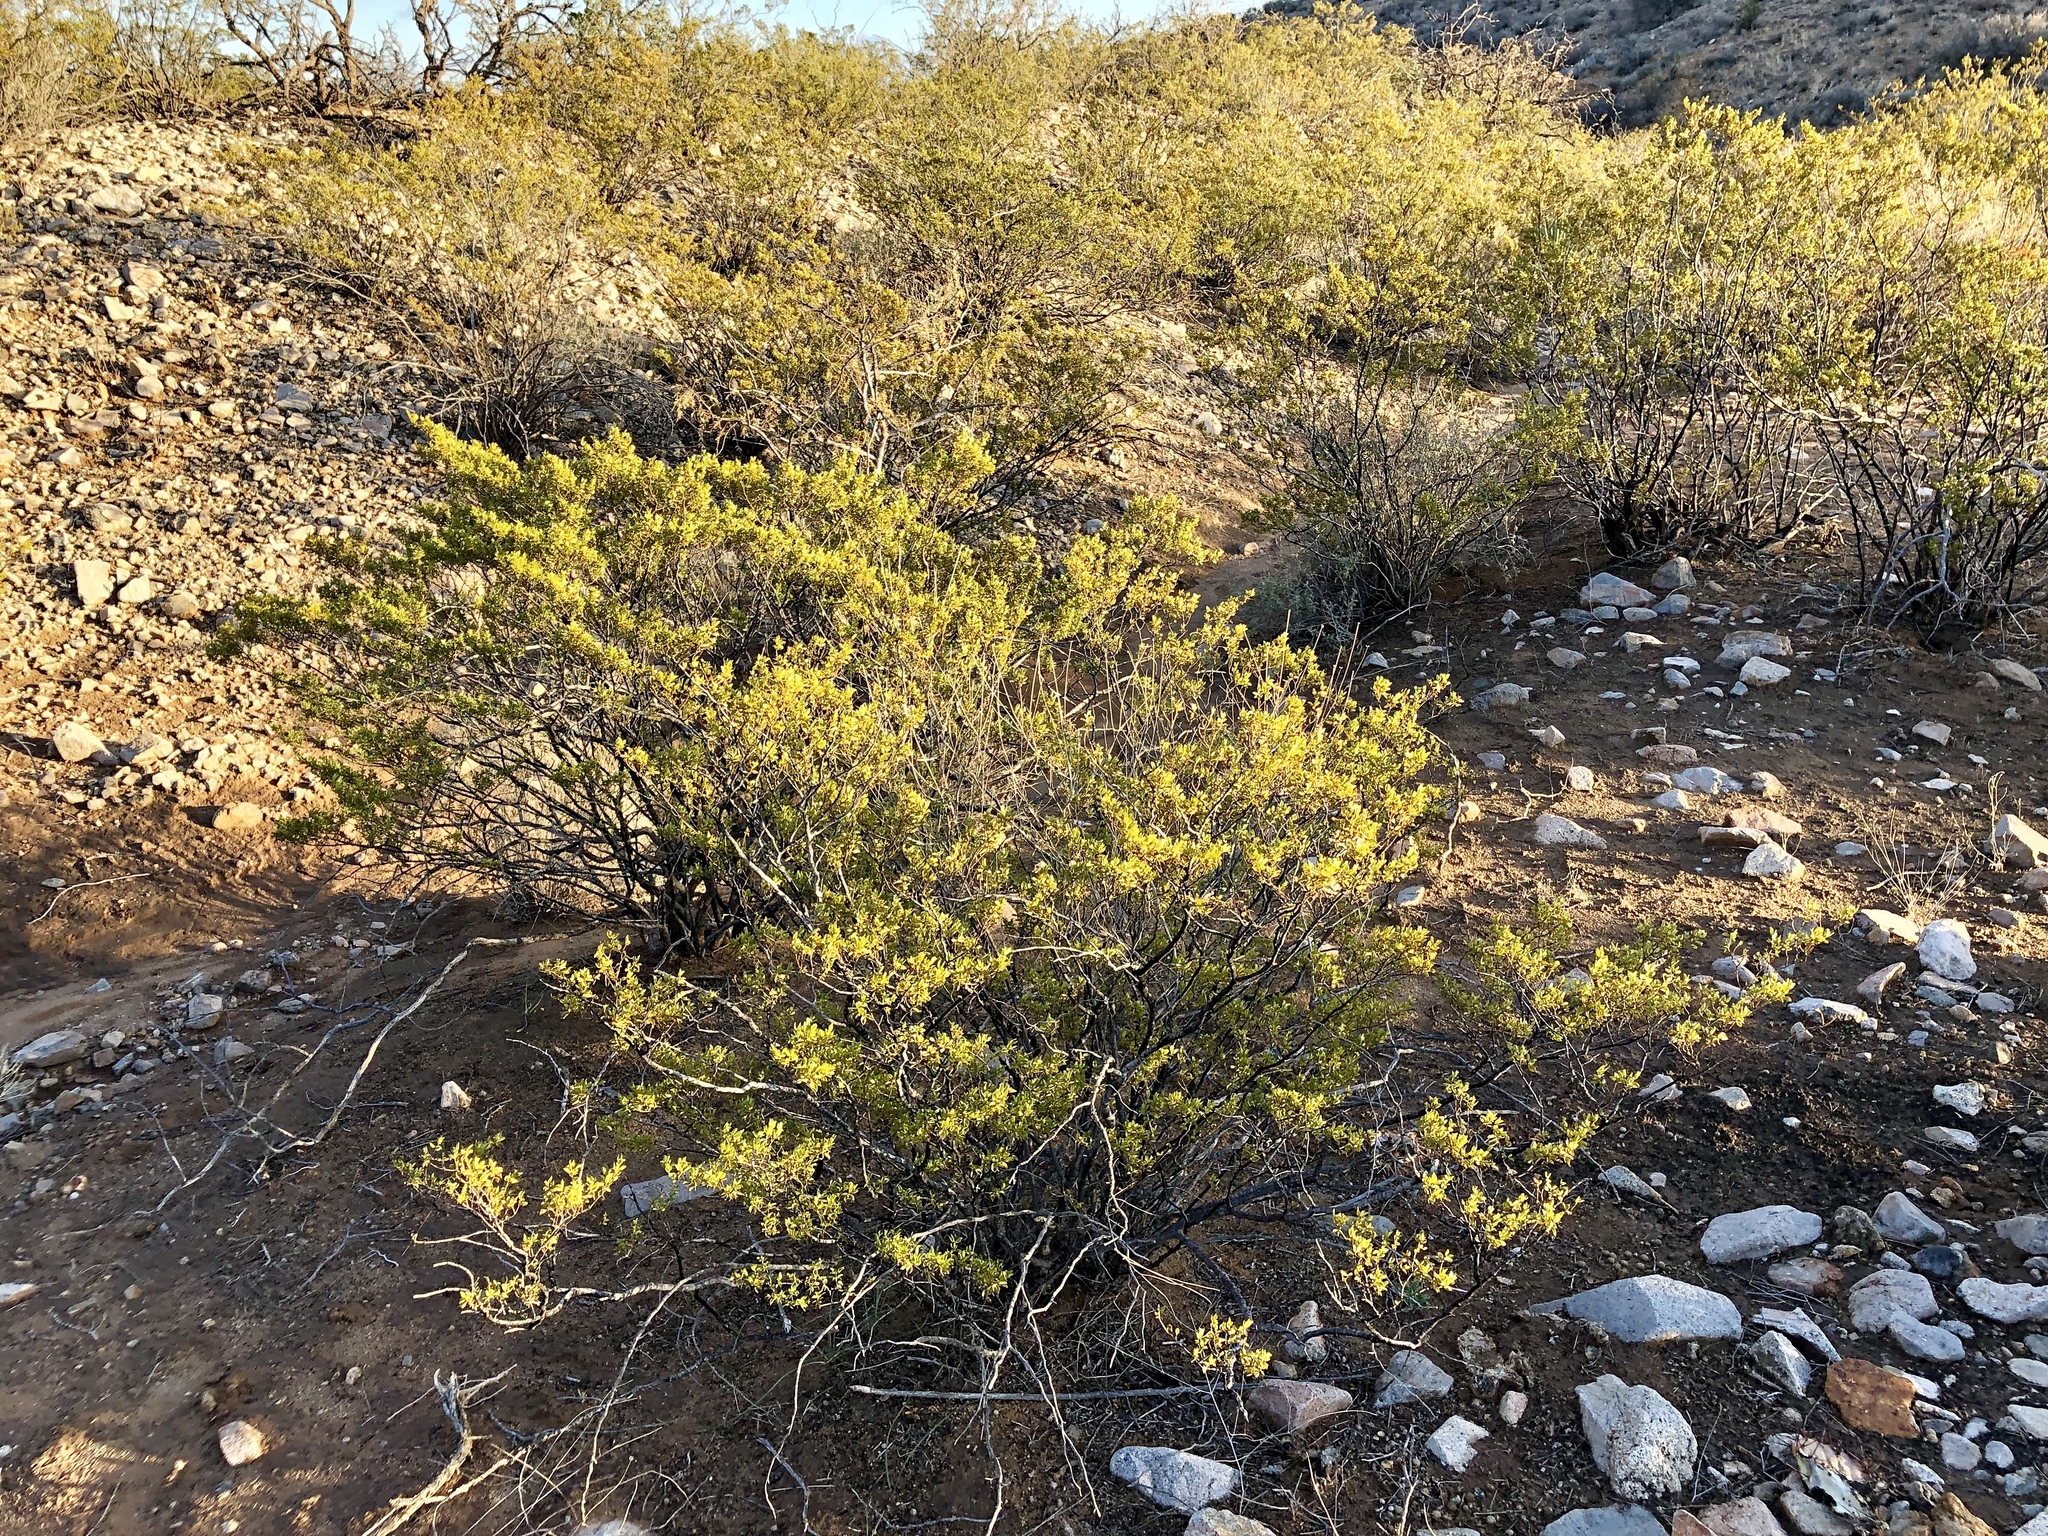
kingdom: Plantae
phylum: Tracheophyta
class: Magnoliopsida
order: Zygophyllales
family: Zygophyllaceae
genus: Larrea
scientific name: Larrea tridentata
